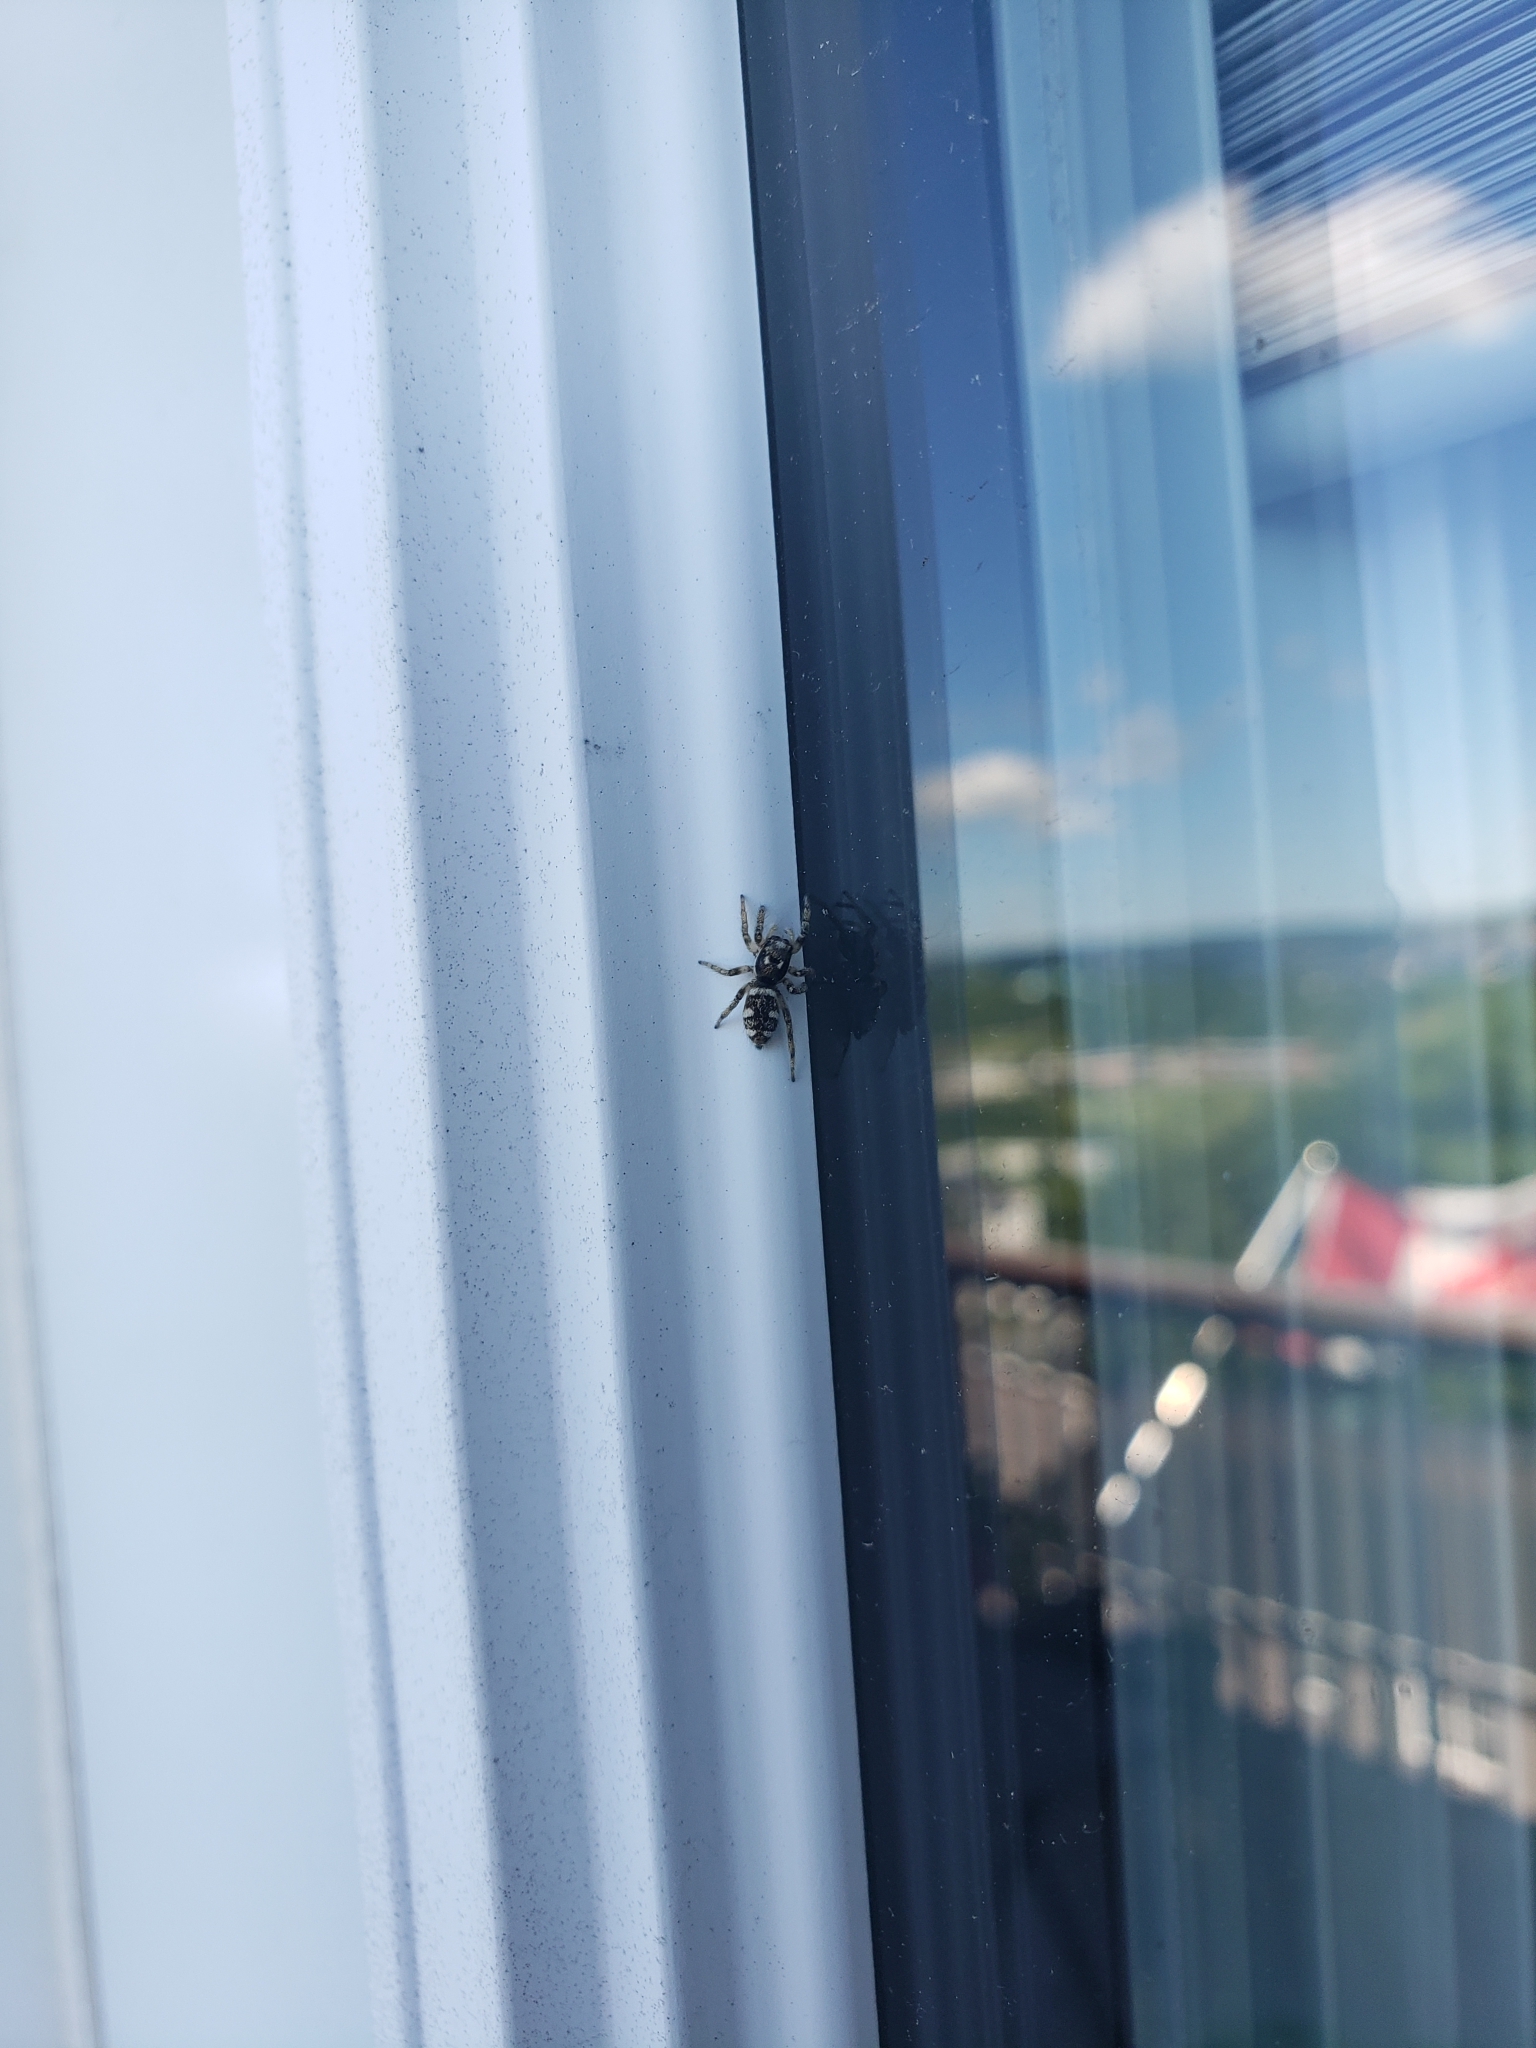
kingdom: Animalia
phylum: Arthropoda
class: Arachnida
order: Araneae
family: Salticidae
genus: Salticus
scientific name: Salticus scenicus
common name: Zebra jumper
